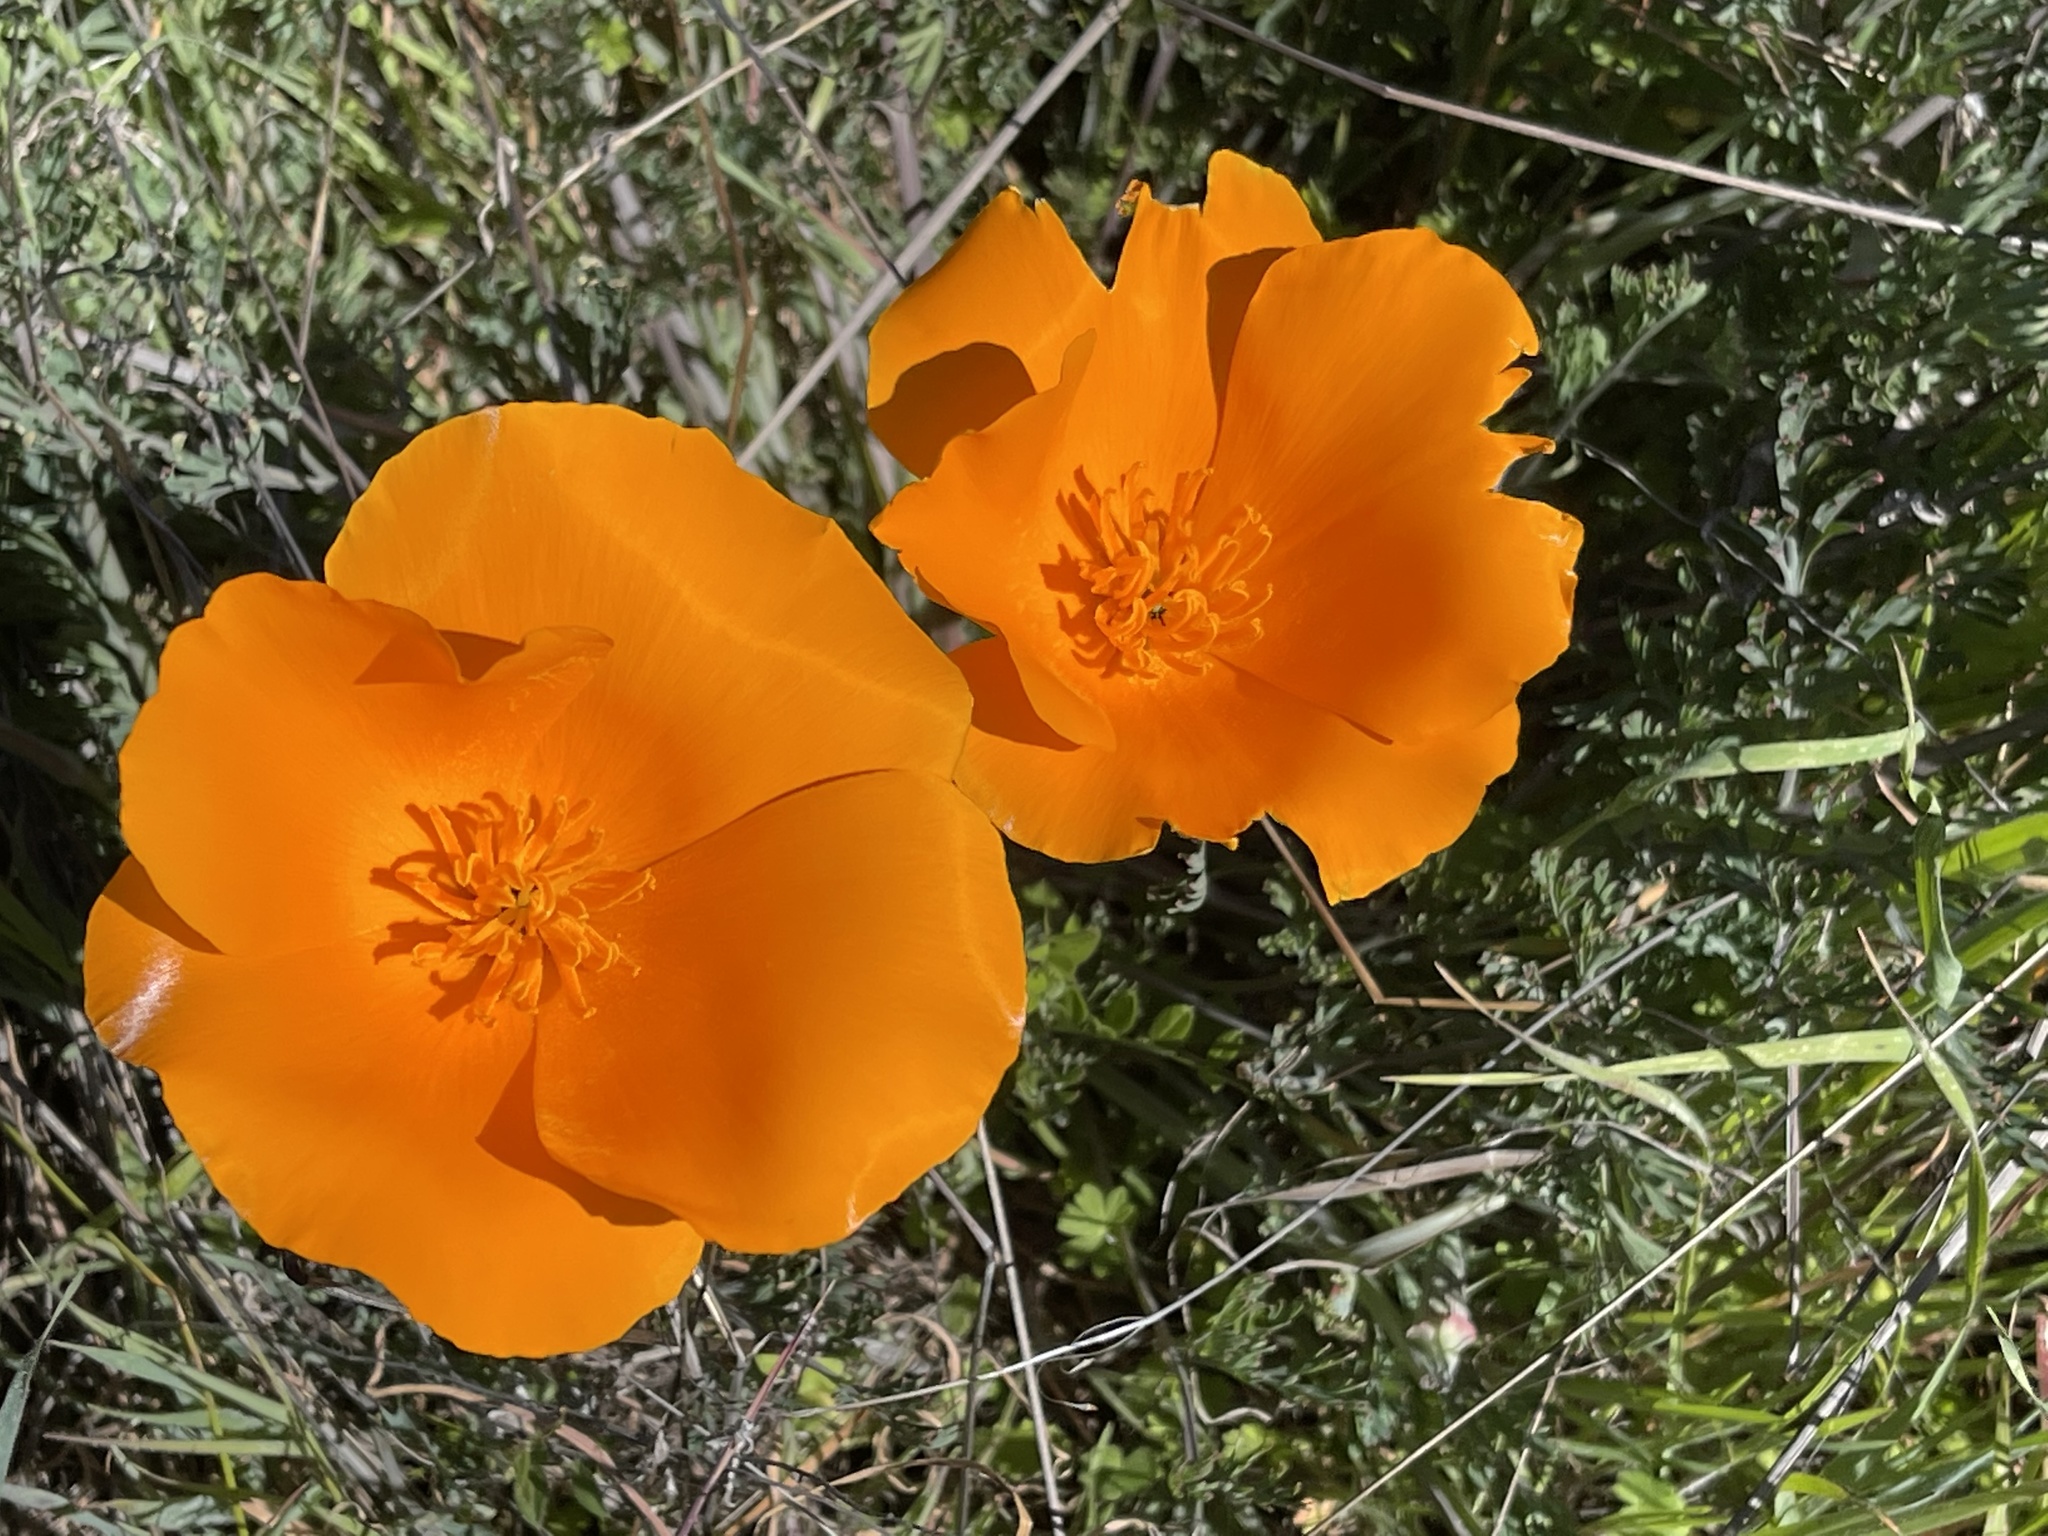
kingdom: Plantae
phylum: Tracheophyta
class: Magnoliopsida
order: Ranunculales
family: Papaveraceae
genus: Eschscholzia
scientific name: Eschscholzia californica
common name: California poppy
